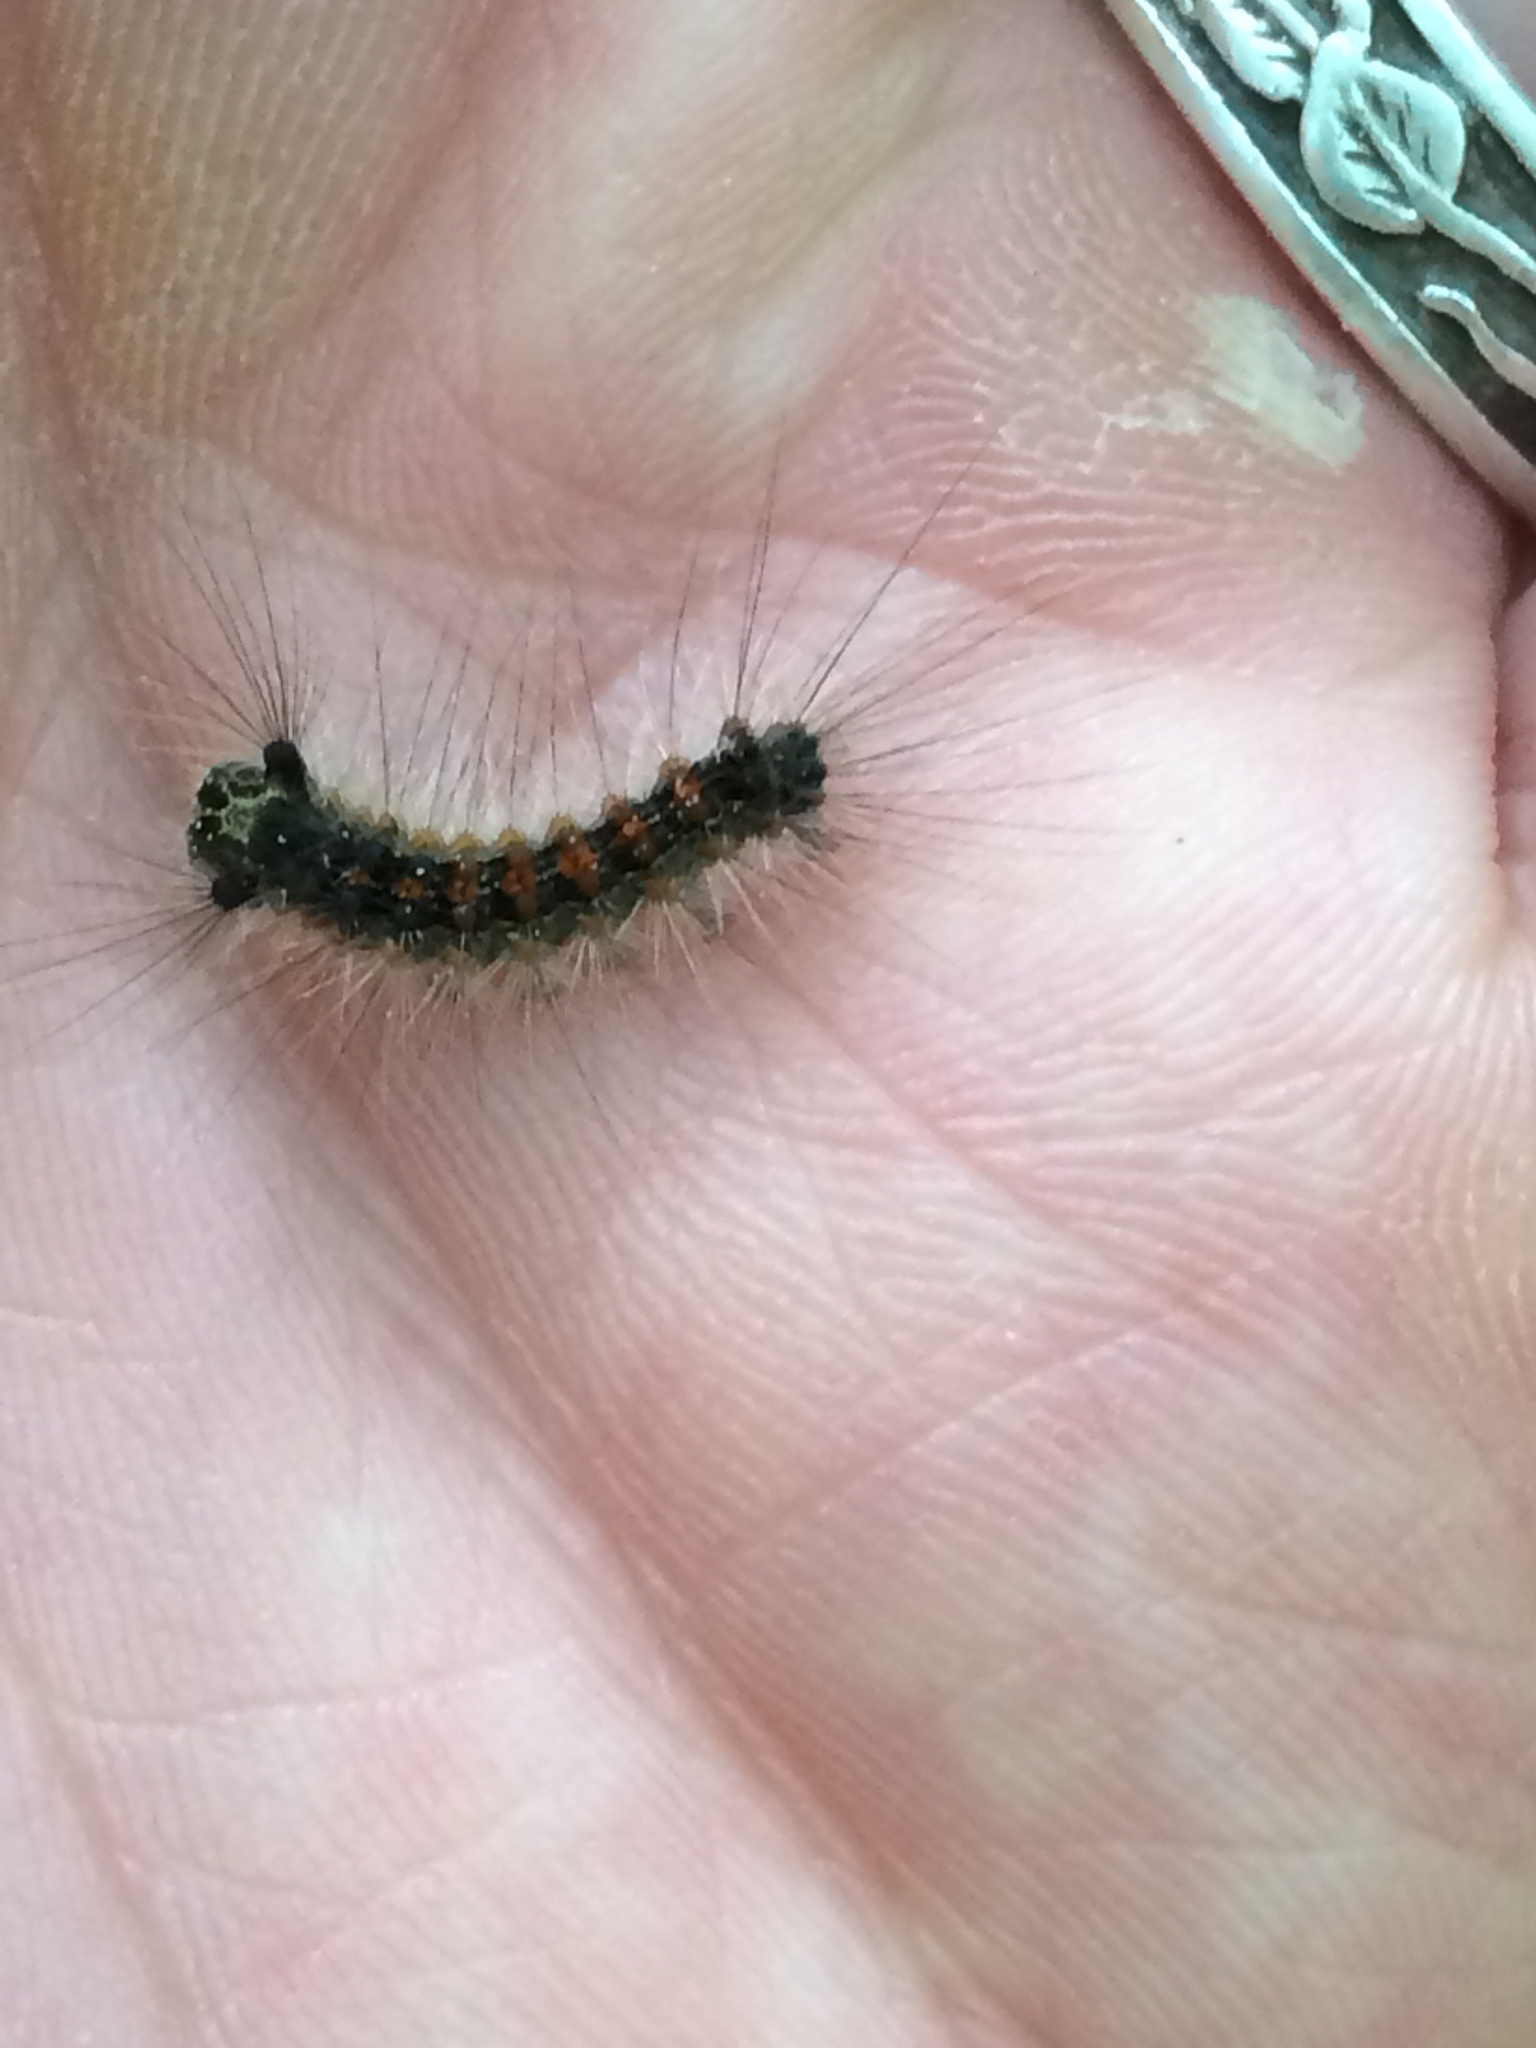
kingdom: Animalia
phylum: Arthropoda
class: Insecta
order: Lepidoptera
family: Erebidae
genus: Lymantria
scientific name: Lymantria dispar
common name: Gypsy moth
